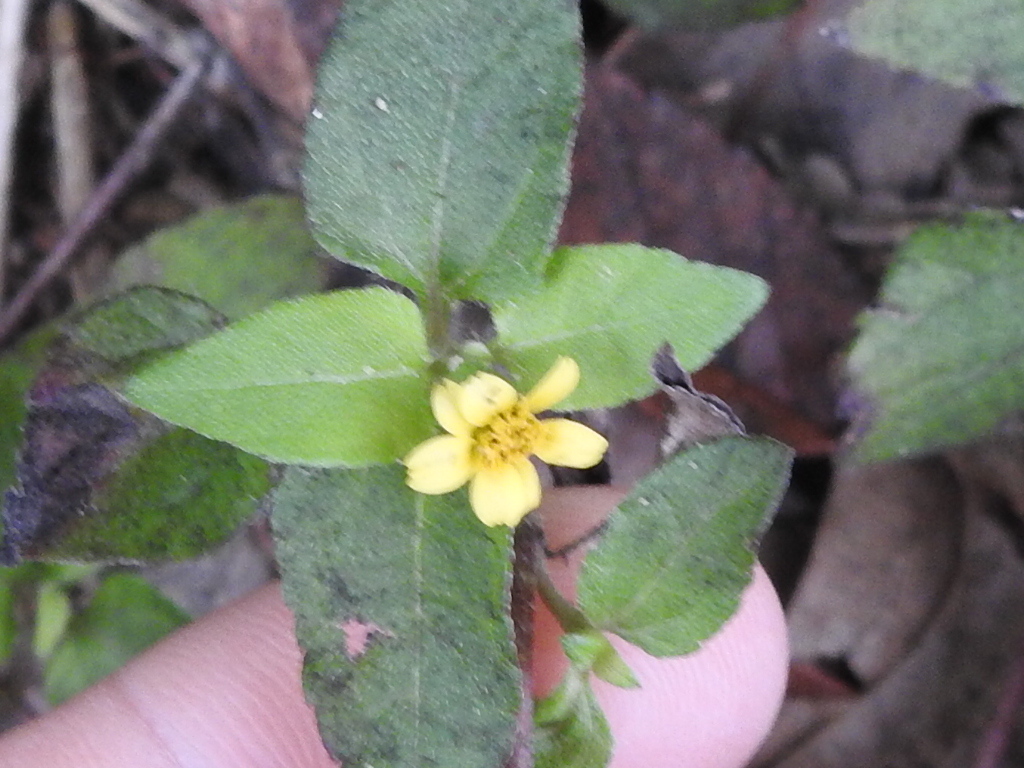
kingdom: Plantae
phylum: Tracheophyta
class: Magnoliopsida
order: Asterales
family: Asteraceae
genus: Calyptocarpus
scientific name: Calyptocarpus vialis
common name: Straggler daisy
